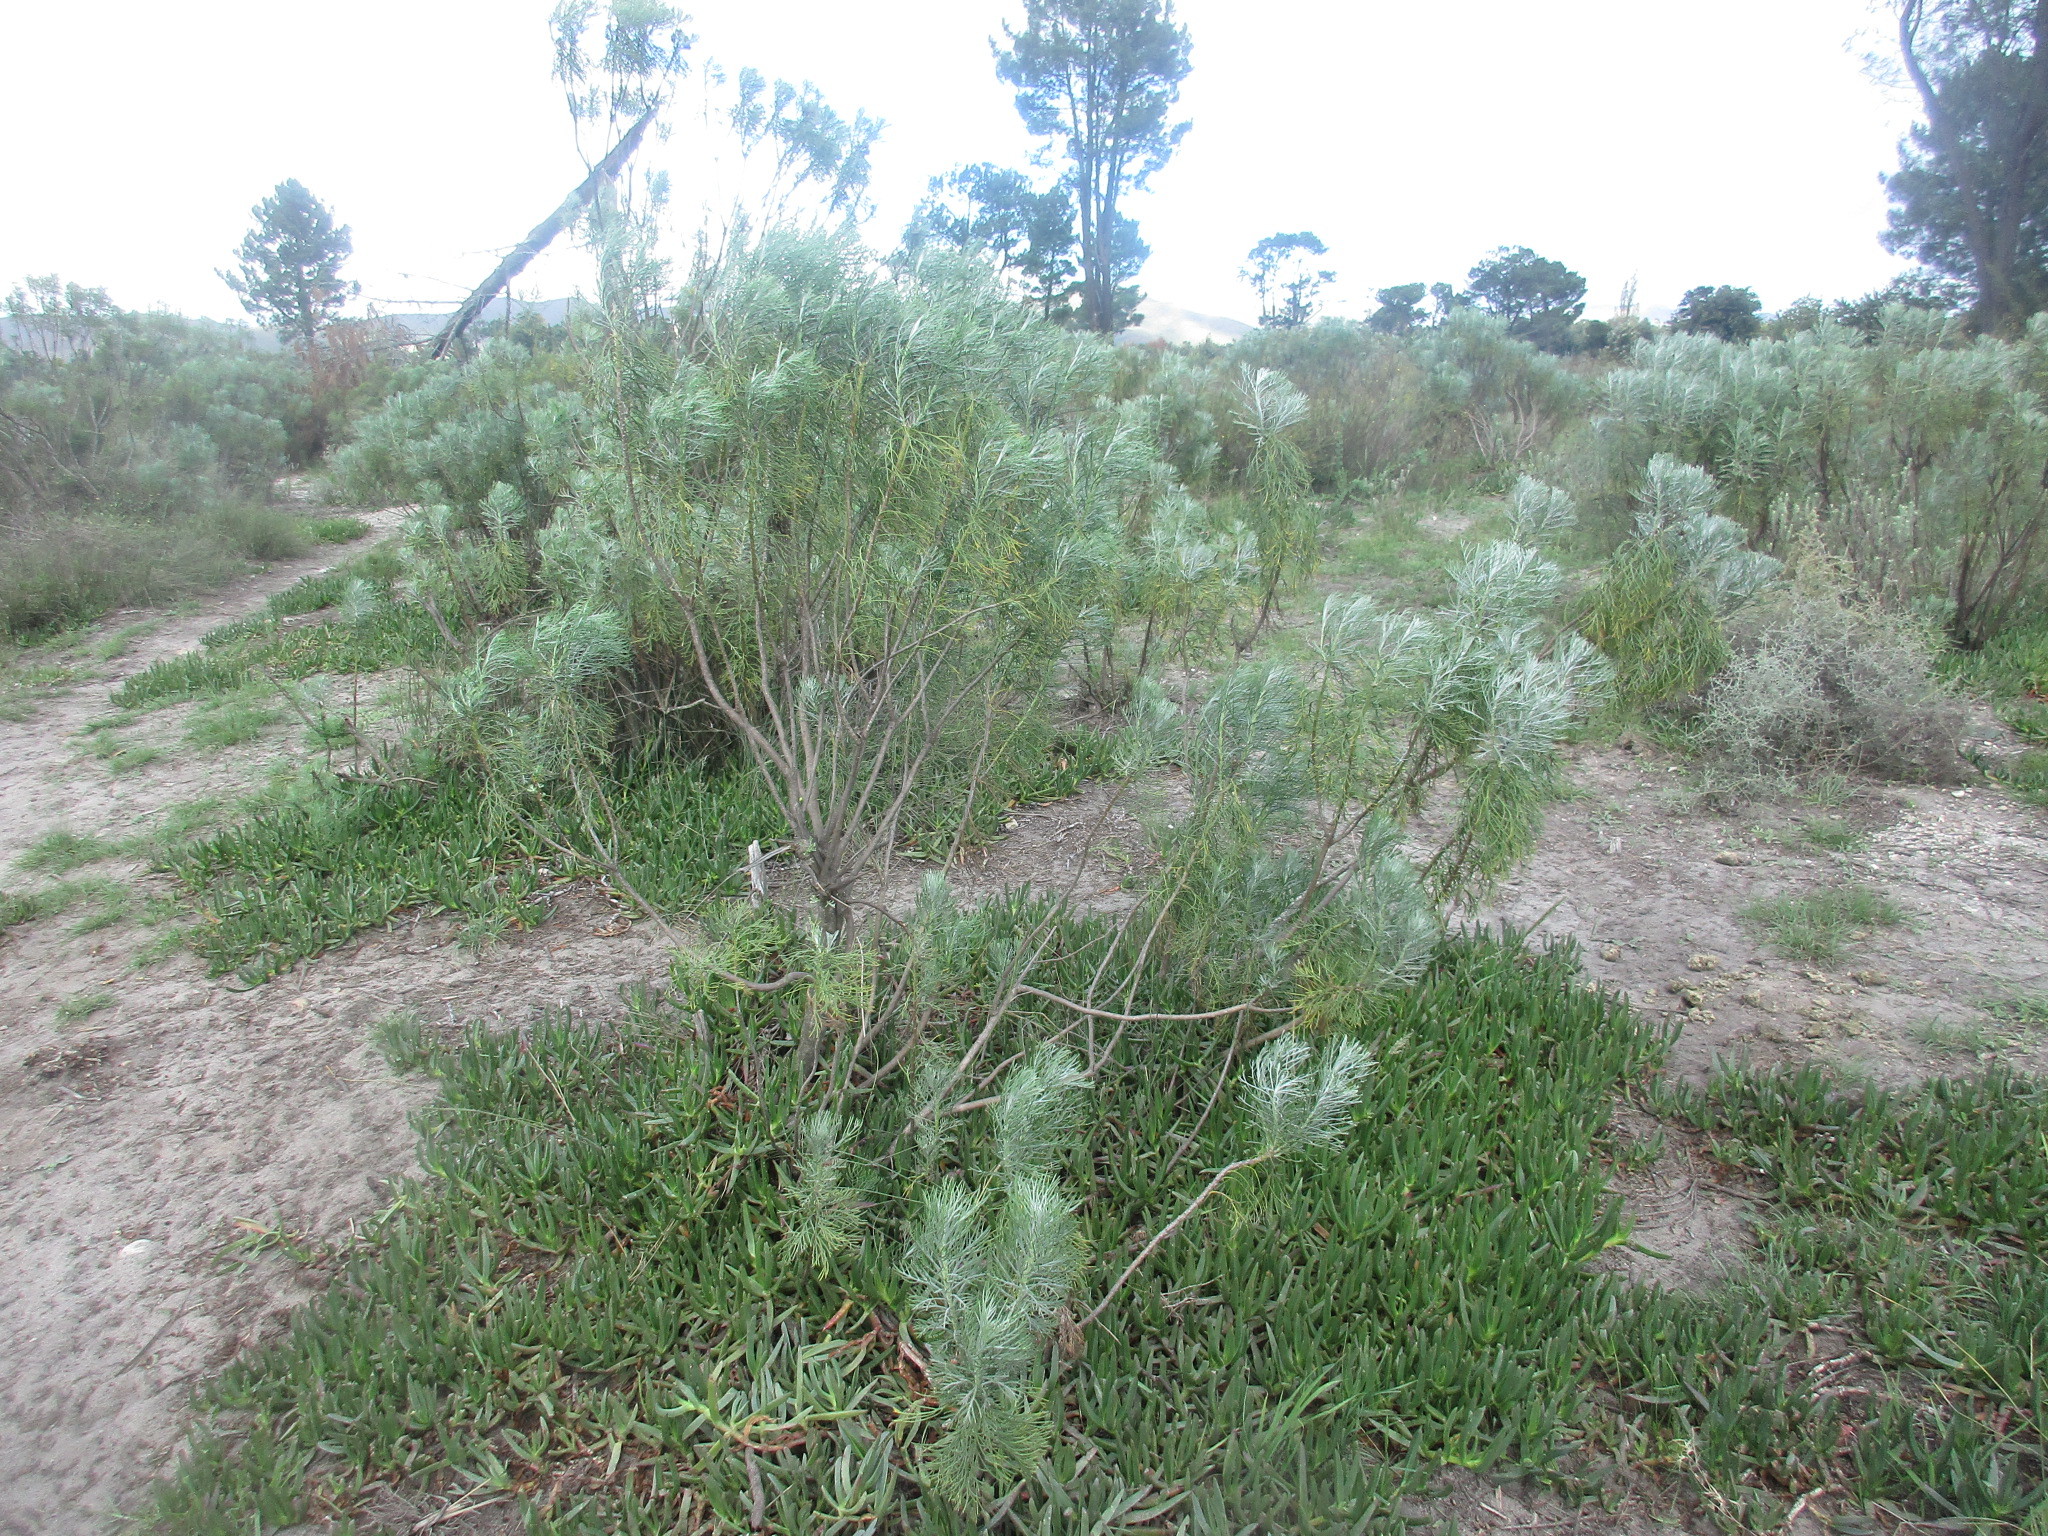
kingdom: Plantae
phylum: Tracheophyta
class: Magnoliopsida
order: Asterales
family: Asteraceae
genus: Hymenolepis
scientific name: Hymenolepis crithmifolia
